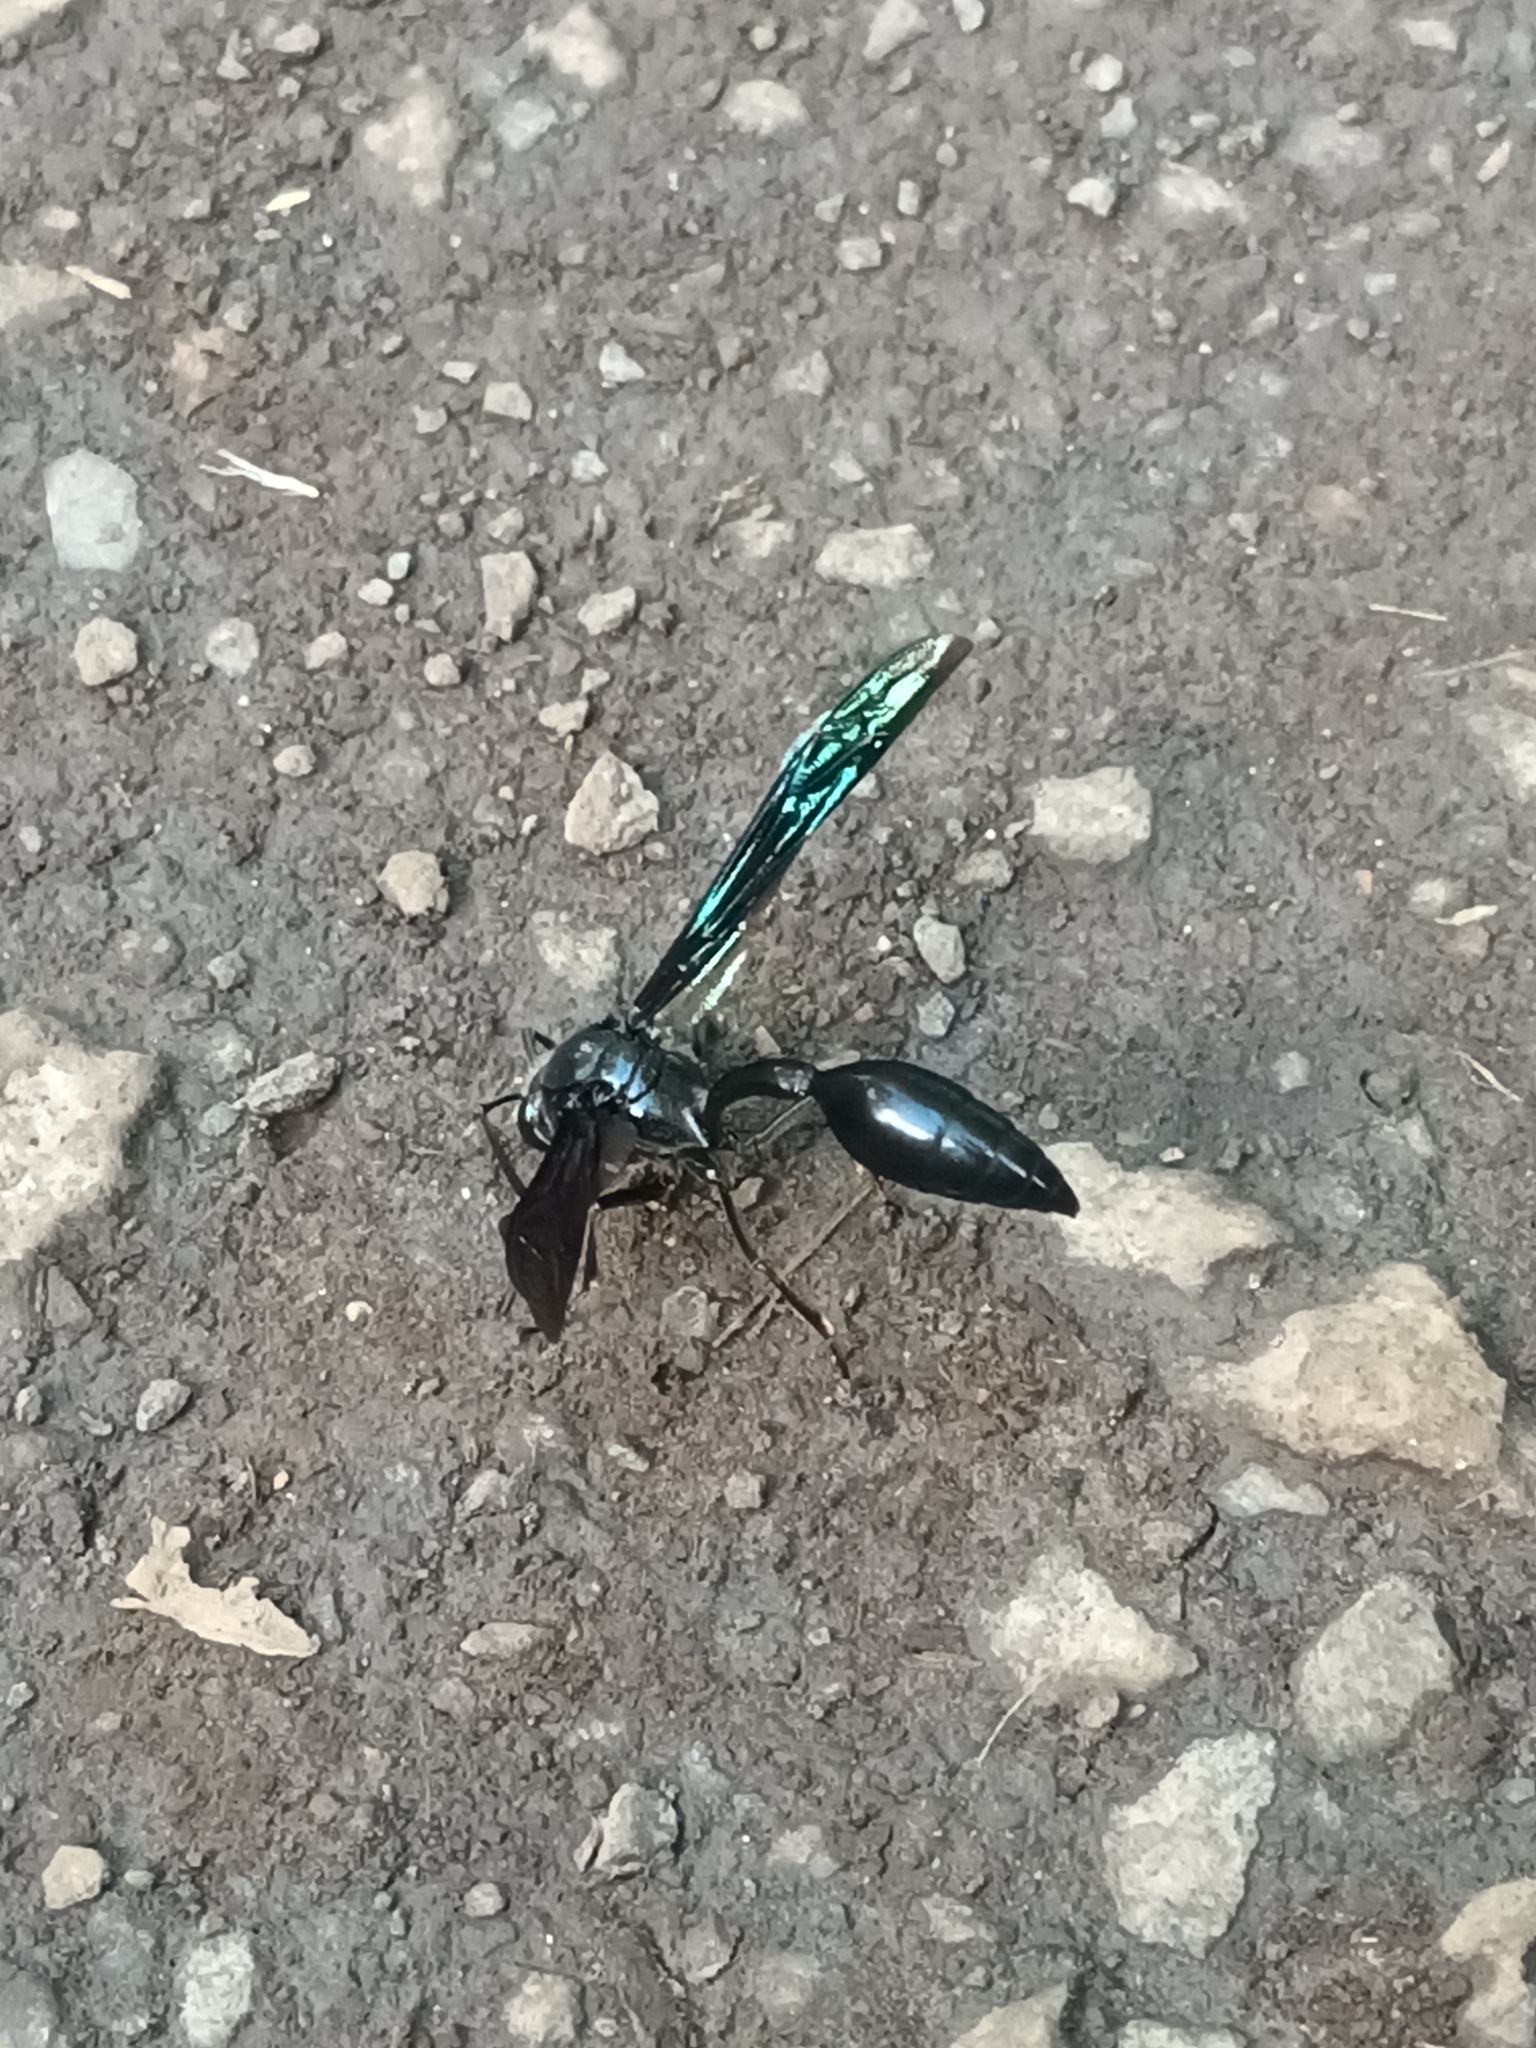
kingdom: Animalia
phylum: Arthropoda
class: Insecta
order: Hymenoptera
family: Eumenidae
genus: Phimenes
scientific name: Phimenes curvatus
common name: Black delta vespid wasp
